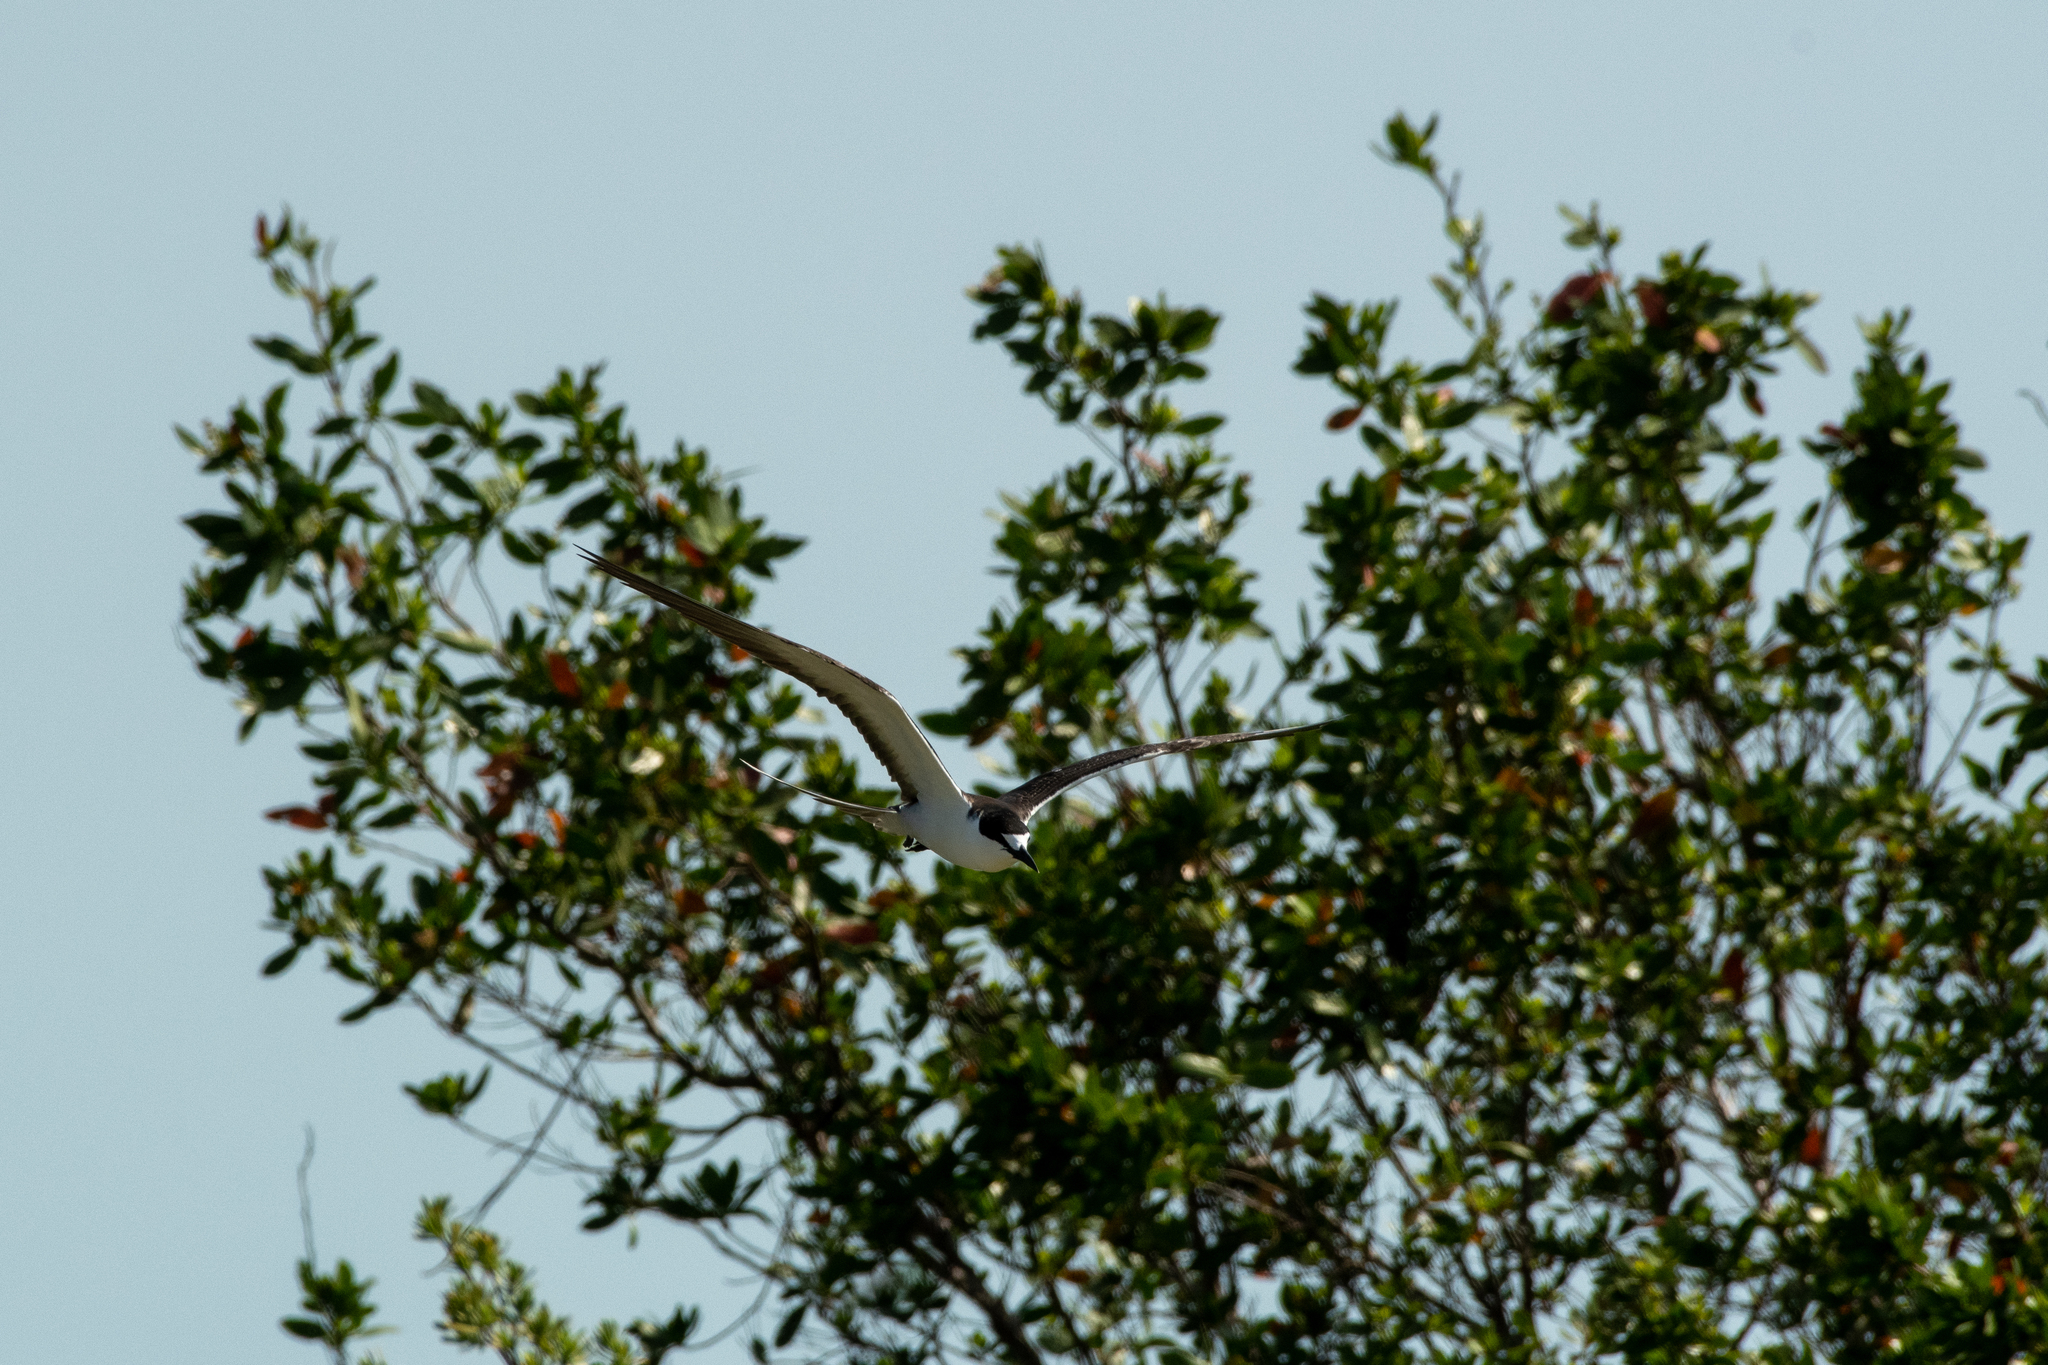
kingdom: Animalia
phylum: Chordata
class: Aves
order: Charadriiformes
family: Laridae
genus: Onychoprion
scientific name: Onychoprion fuscatus
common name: Sooty tern
